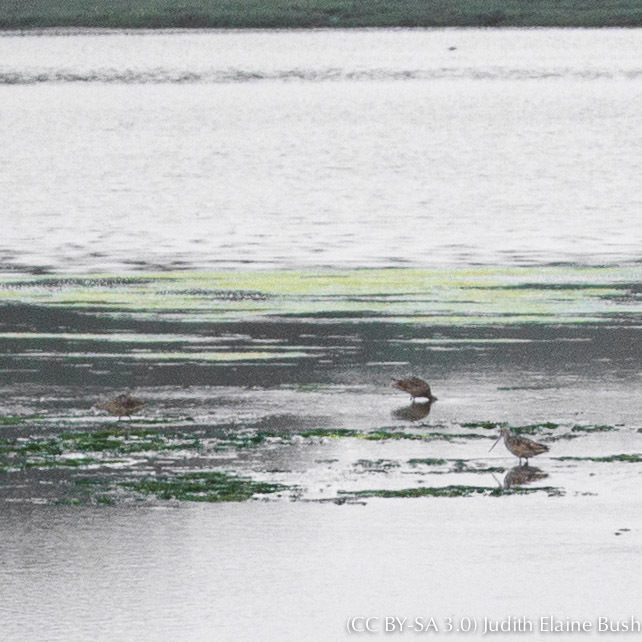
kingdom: Animalia
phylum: Chordata
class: Aves
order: Charadriiformes
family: Scolopacidae
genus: Limosa
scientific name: Limosa fedoa
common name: Marbled godwit
